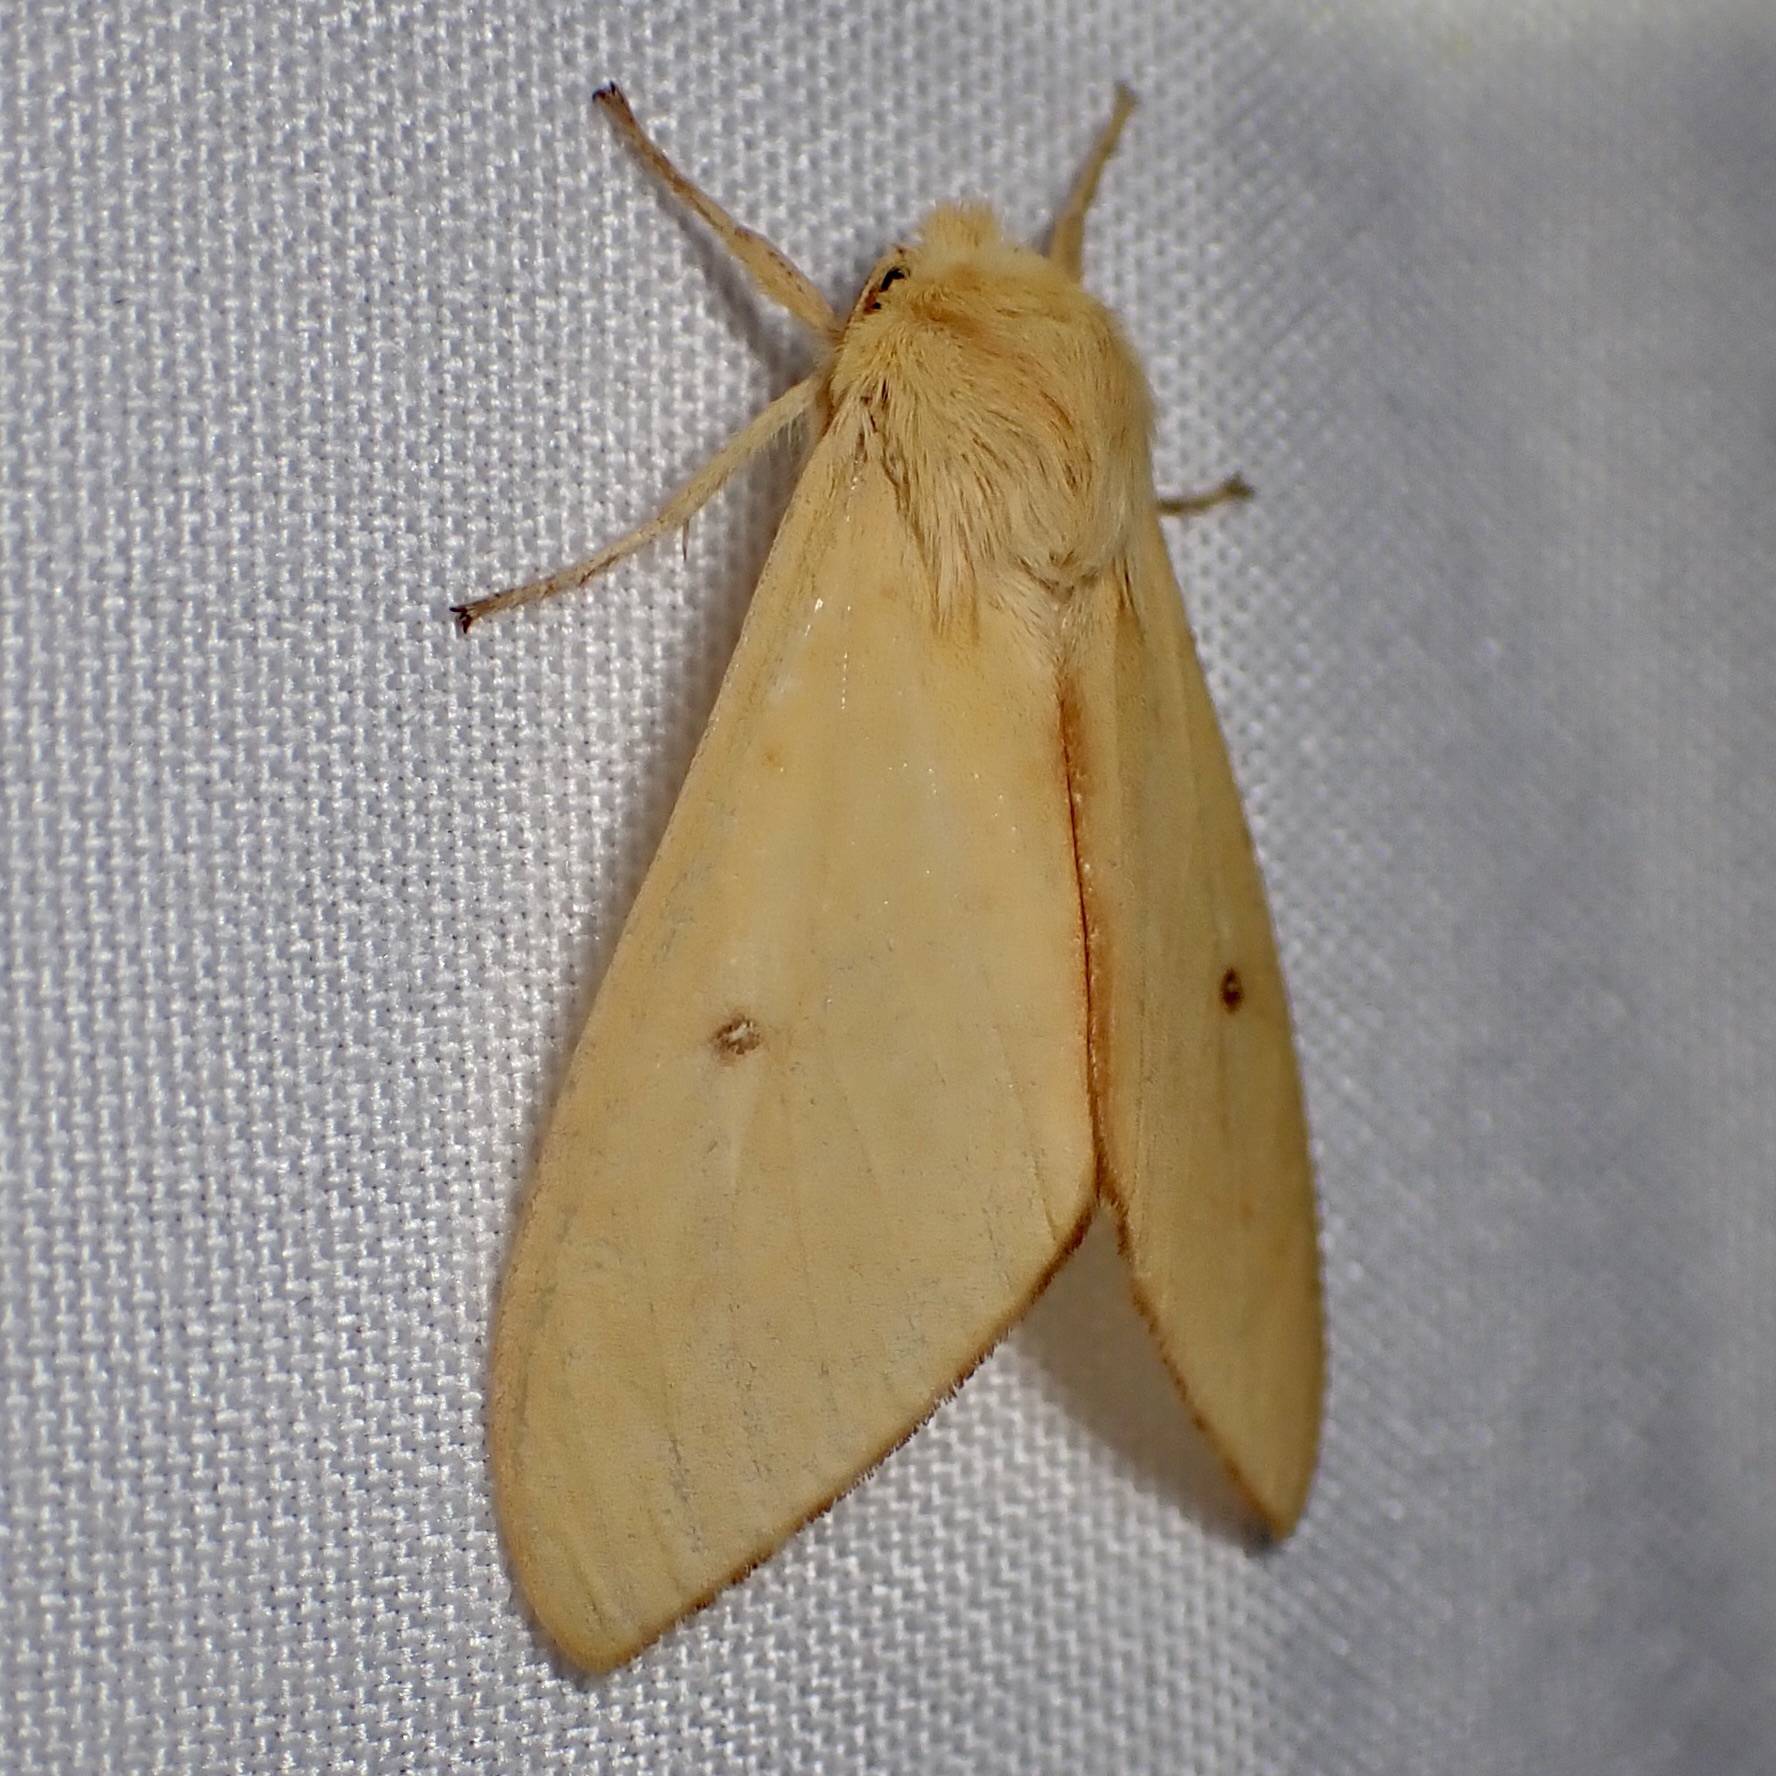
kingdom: Animalia
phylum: Arthropoda
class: Insecta
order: Lepidoptera
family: Erebidae
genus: Lophocampa
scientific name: Lophocampa pura
